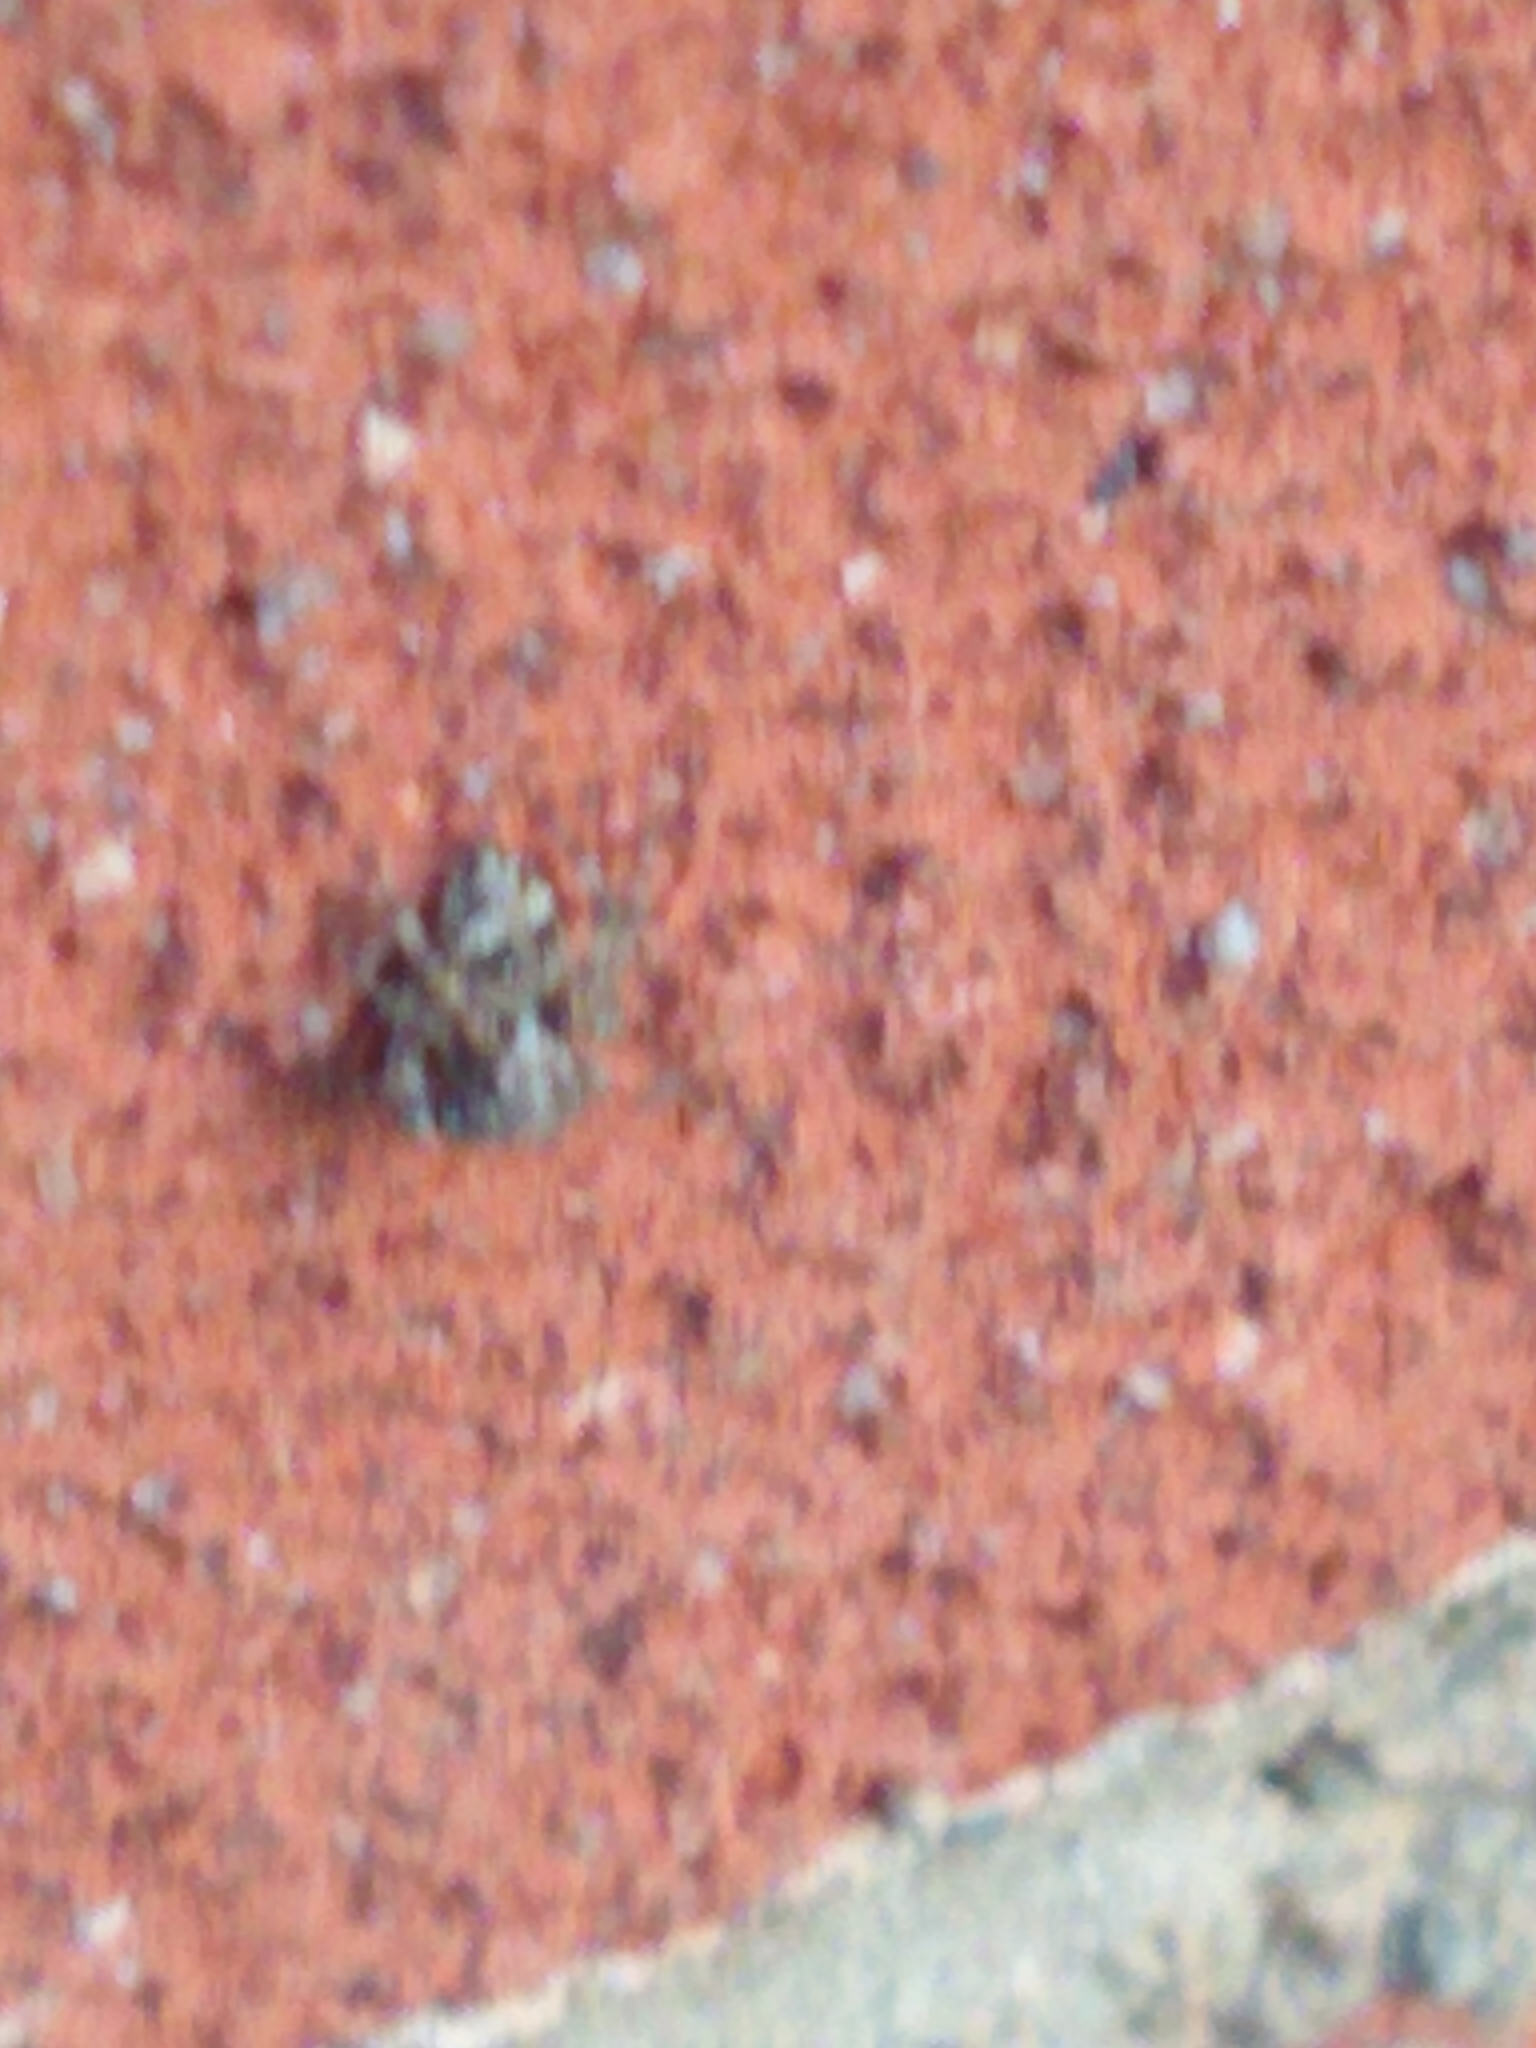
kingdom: Animalia
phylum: Arthropoda
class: Arachnida
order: Araneae
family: Salticidae
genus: Attulus
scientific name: Attulus fasciger
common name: Asiatic wall jumping spider
